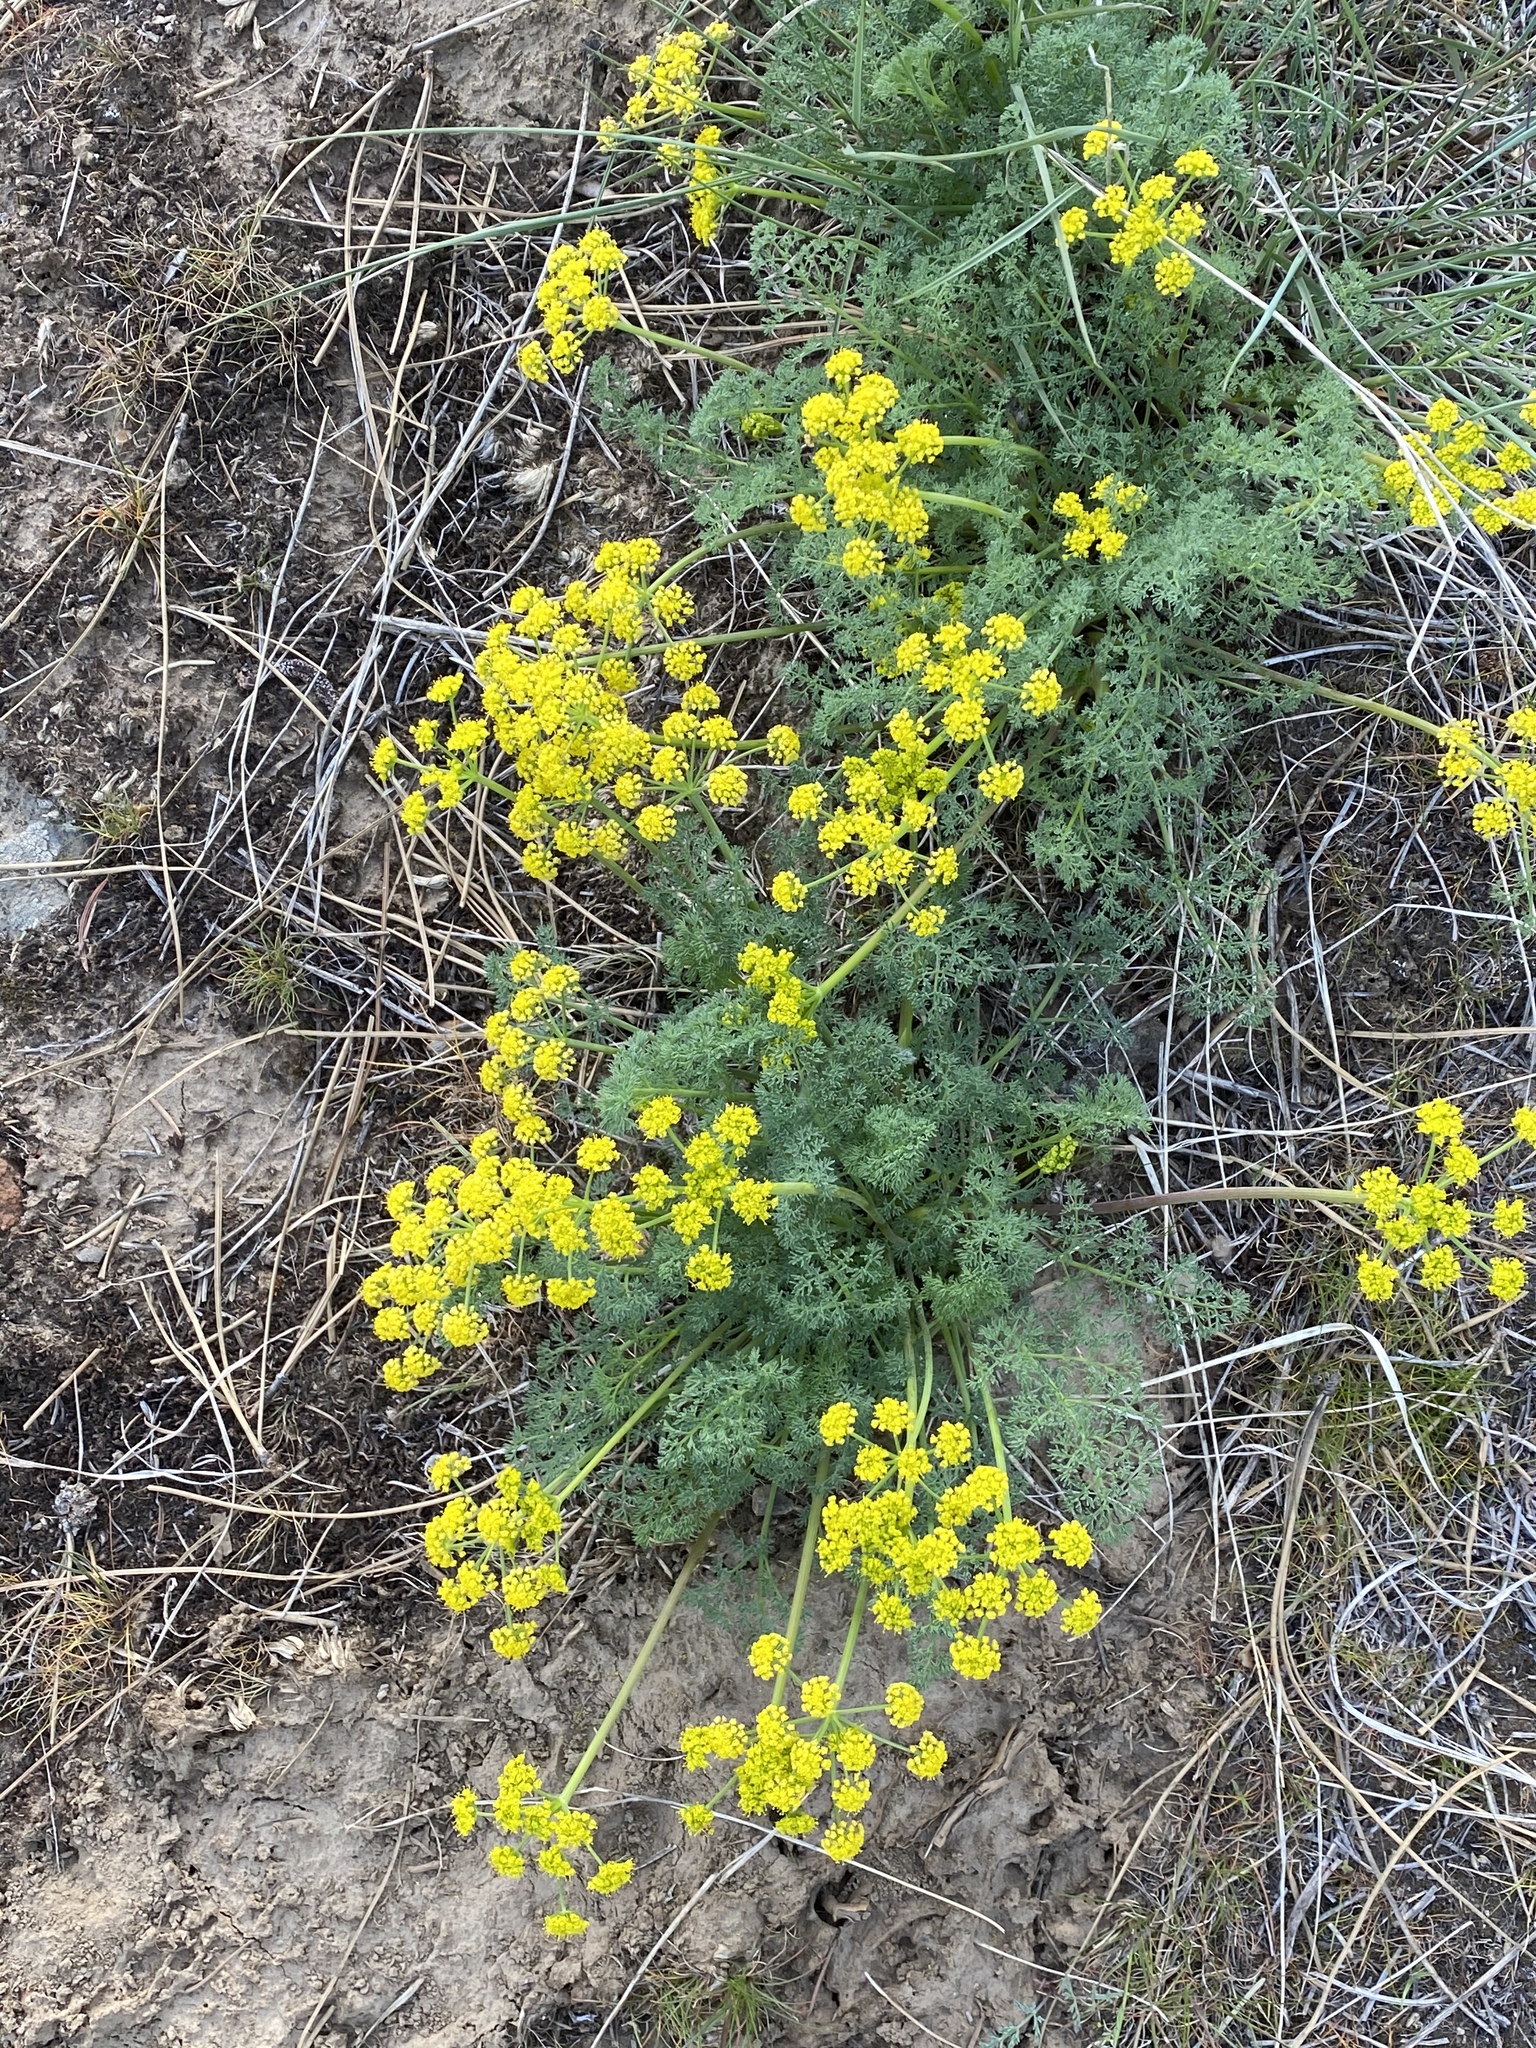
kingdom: Plantae
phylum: Tracheophyta
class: Magnoliopsida
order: Apiales
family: Apiaceae
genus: Lomatium
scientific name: Lomatium papilioniferum
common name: Butterfly lomatium
